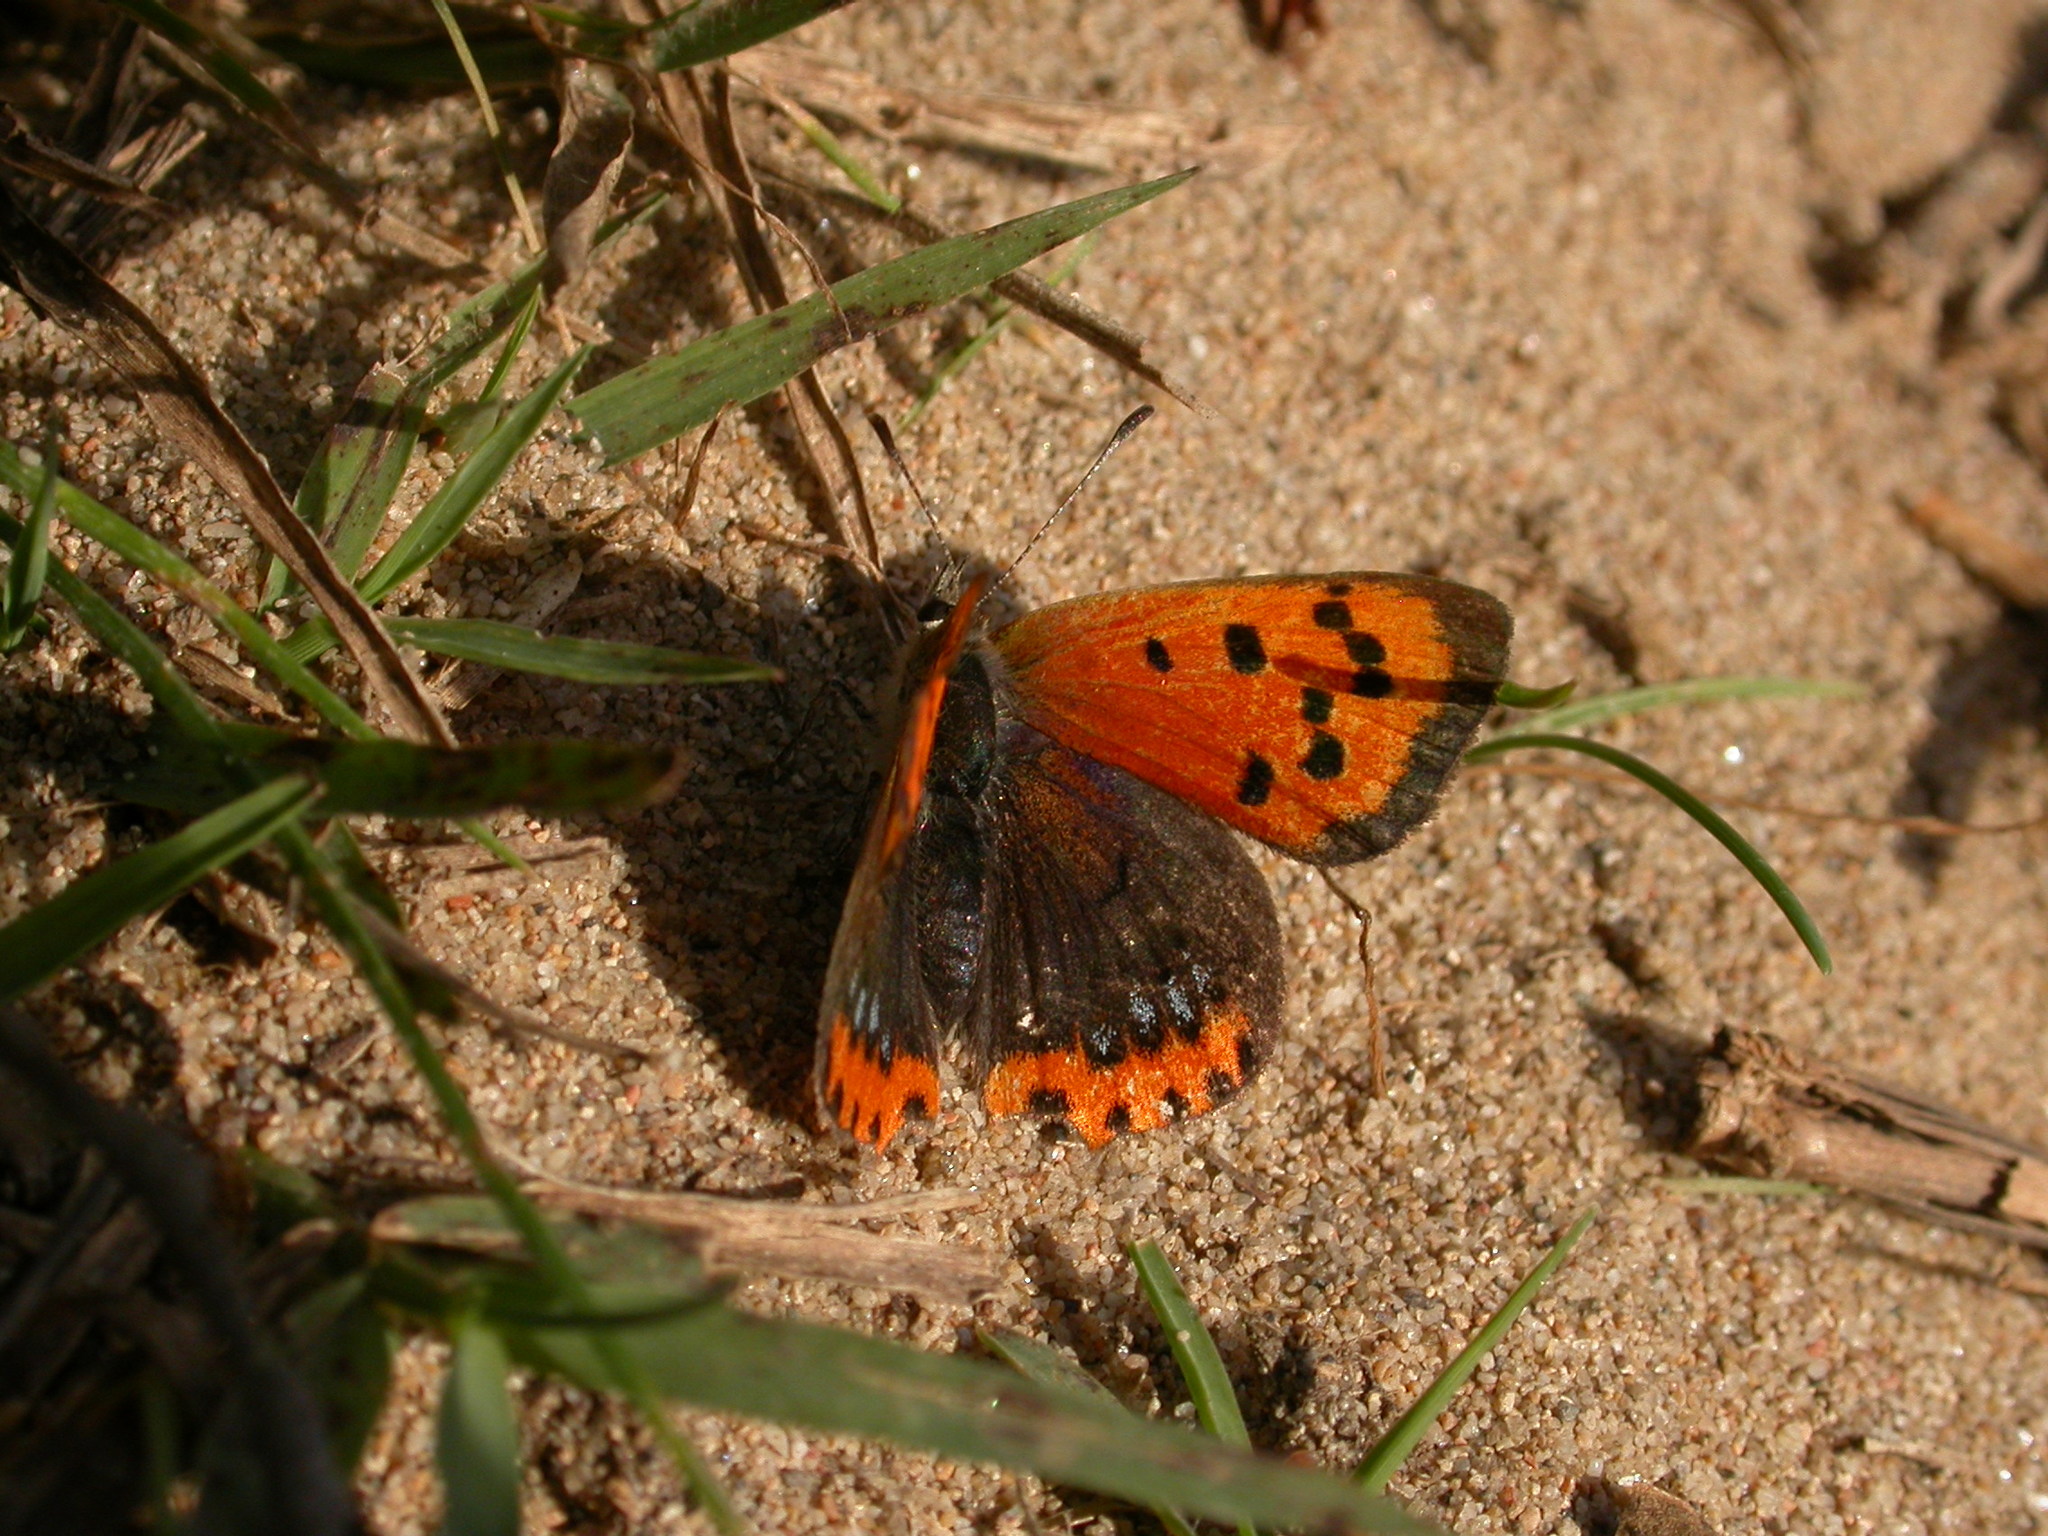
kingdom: Animalia
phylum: Arthropoda
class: Insecta
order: Lepidoptera
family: Lycaenidae
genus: Lycaena
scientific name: Lycaena phlaeas
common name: Small copper
